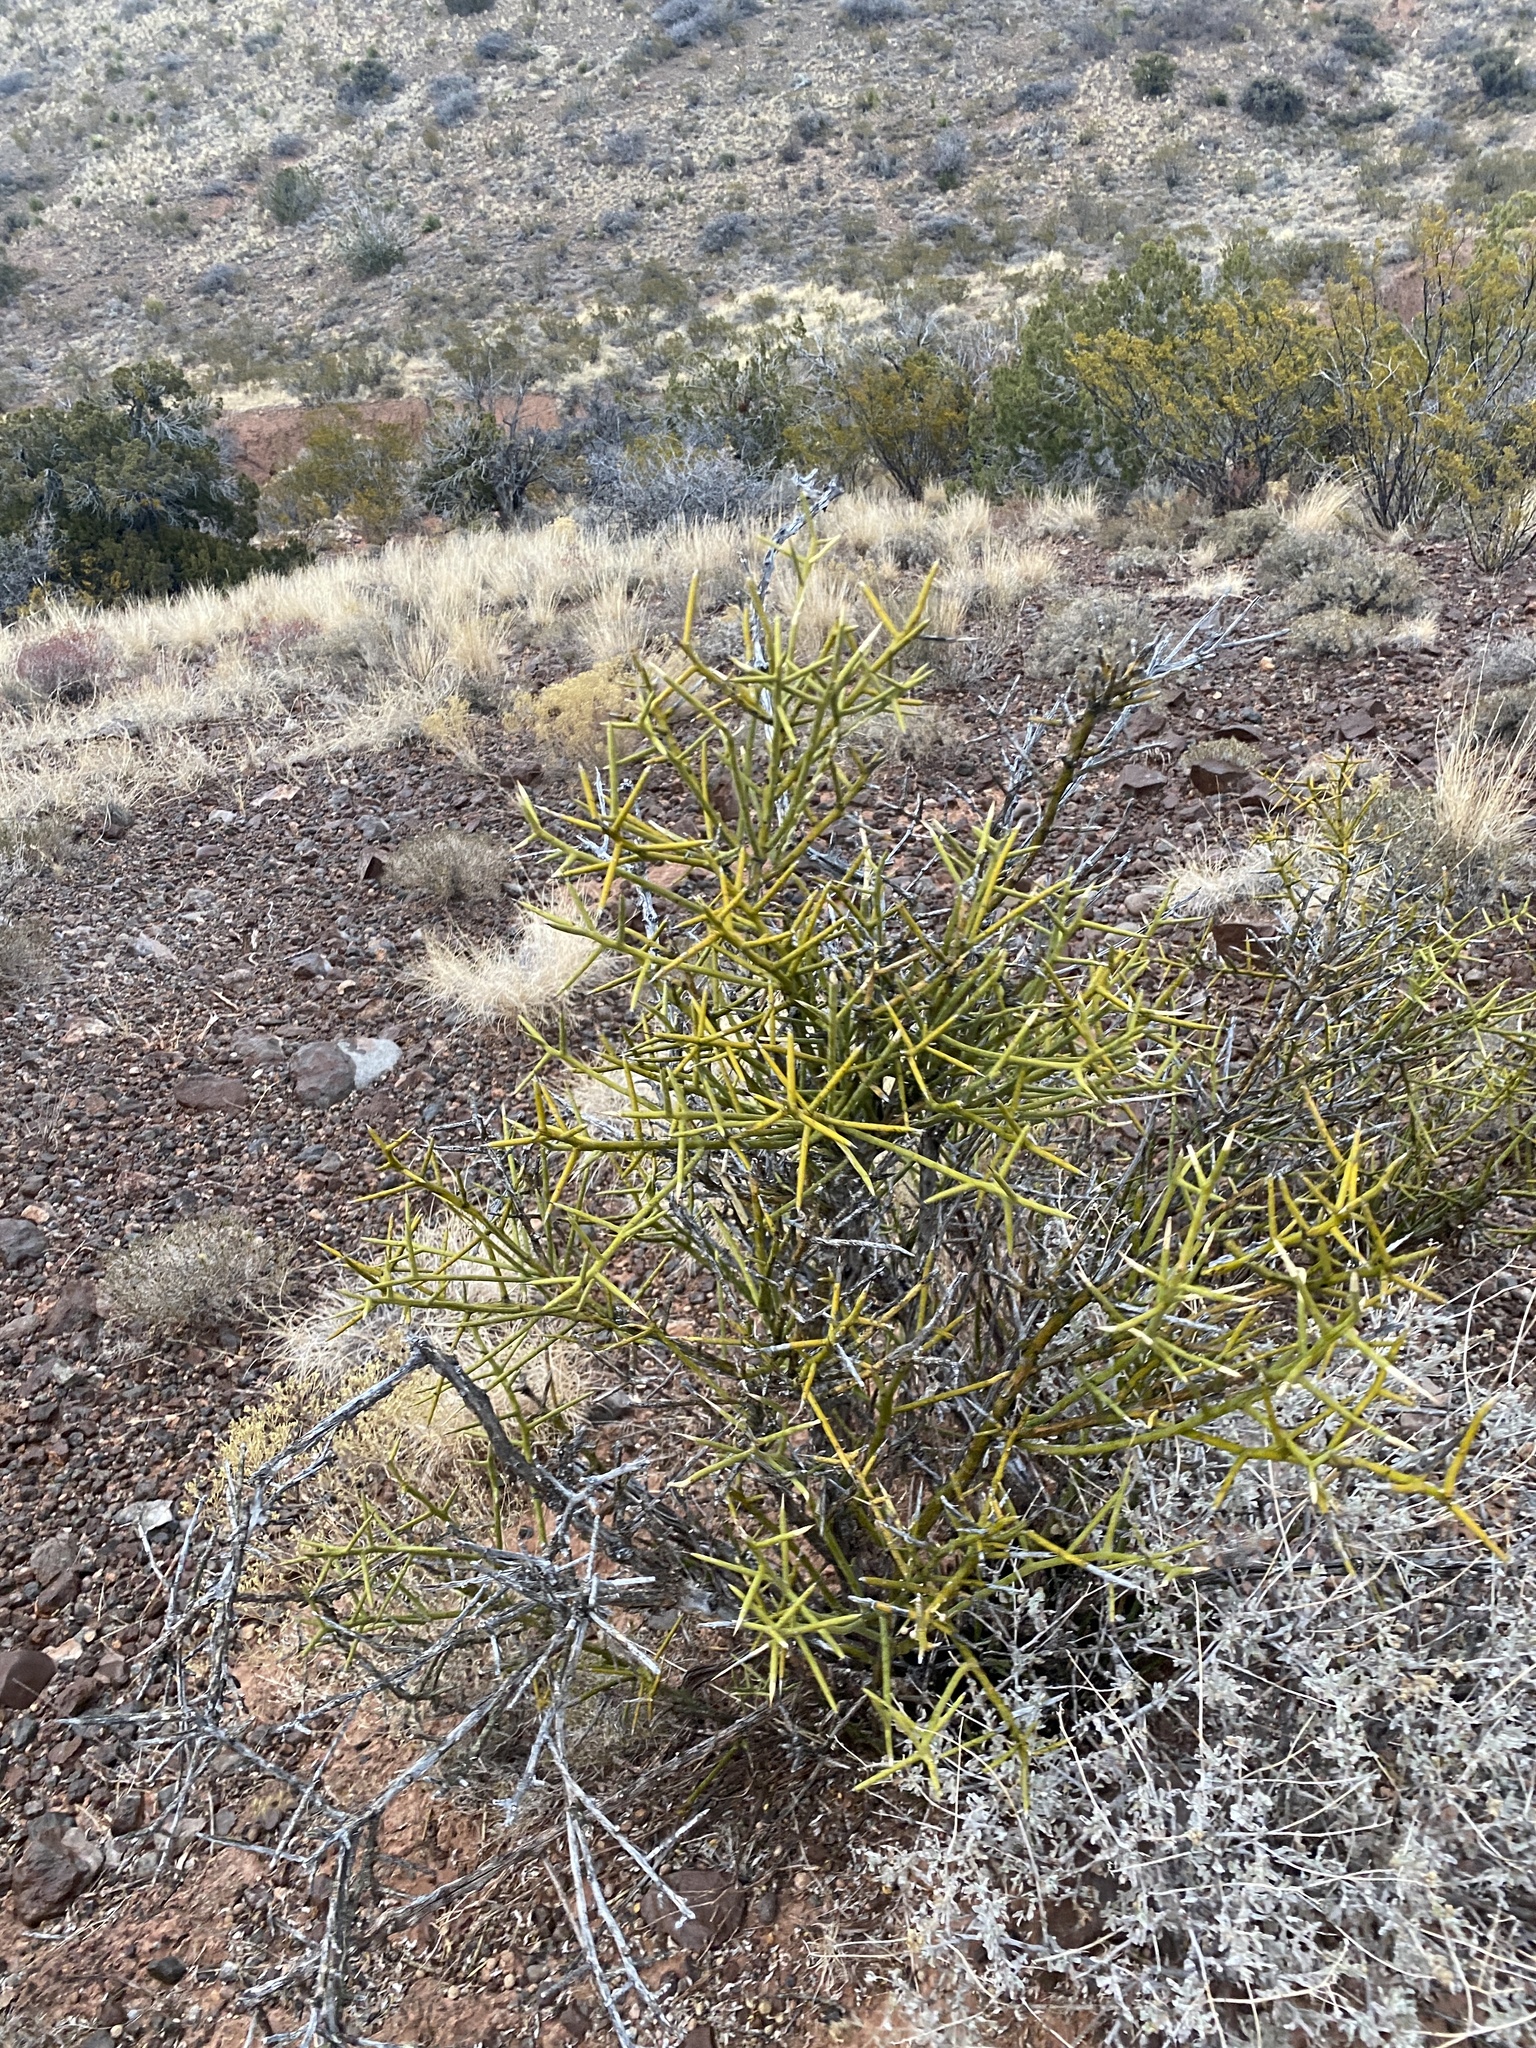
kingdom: Plantae
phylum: Tracheophyta
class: Magnoliopsida
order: Brassicales
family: Koeberliniaceae
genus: Koeberlinia
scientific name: Koeberlinia spinosa
